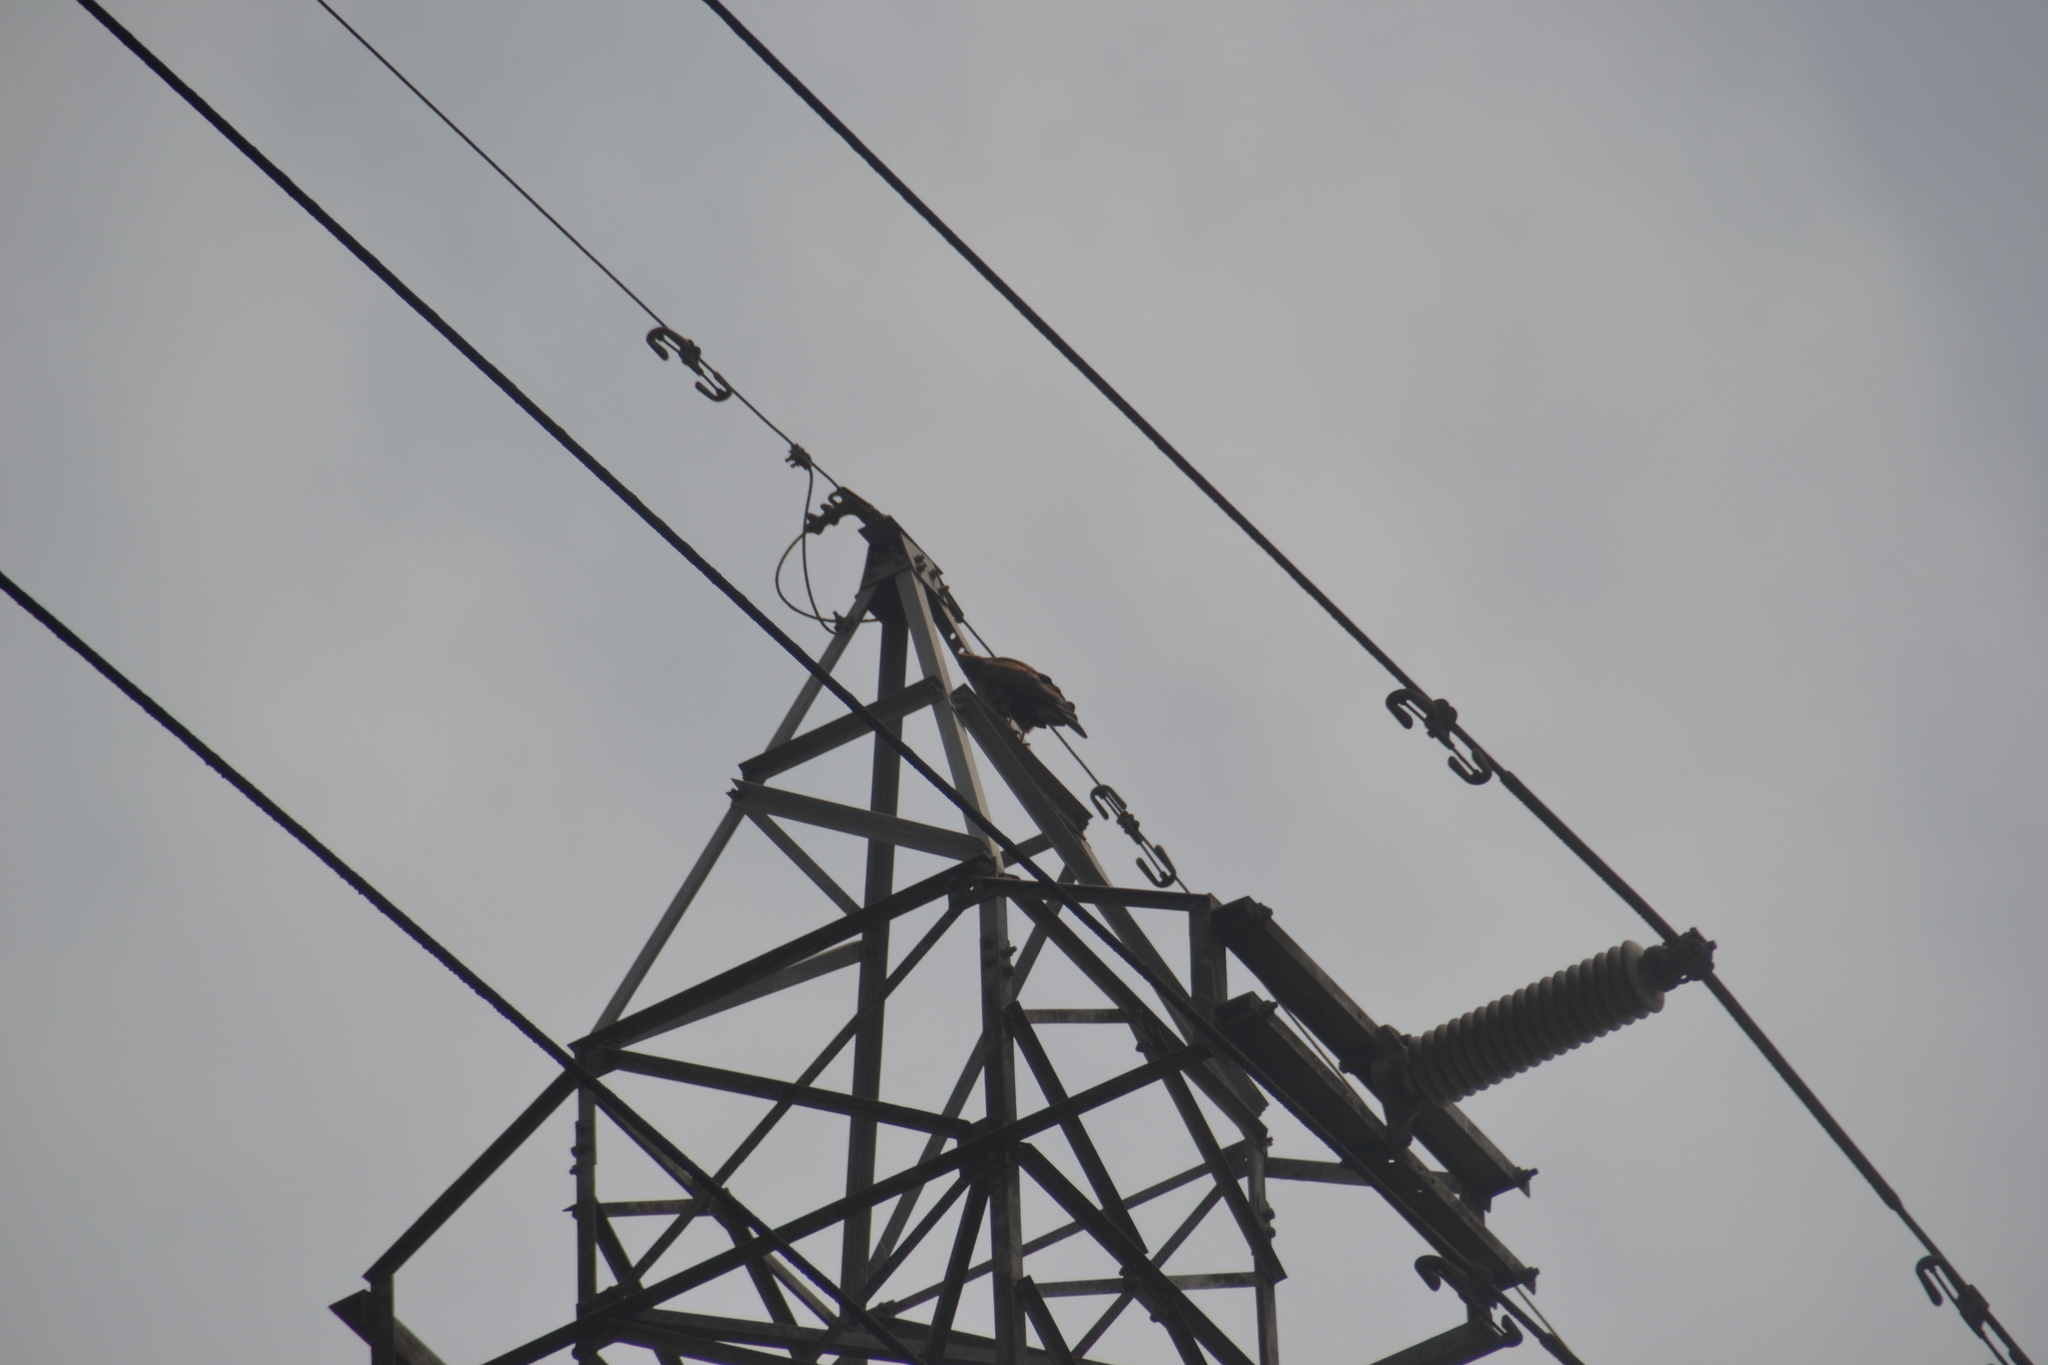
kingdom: Animalia
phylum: Chordata
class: Aves
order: Accipitriformes
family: Accipitridae
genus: Parabuteo
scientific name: Parabuteo unicinctus
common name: Harris's hawk
